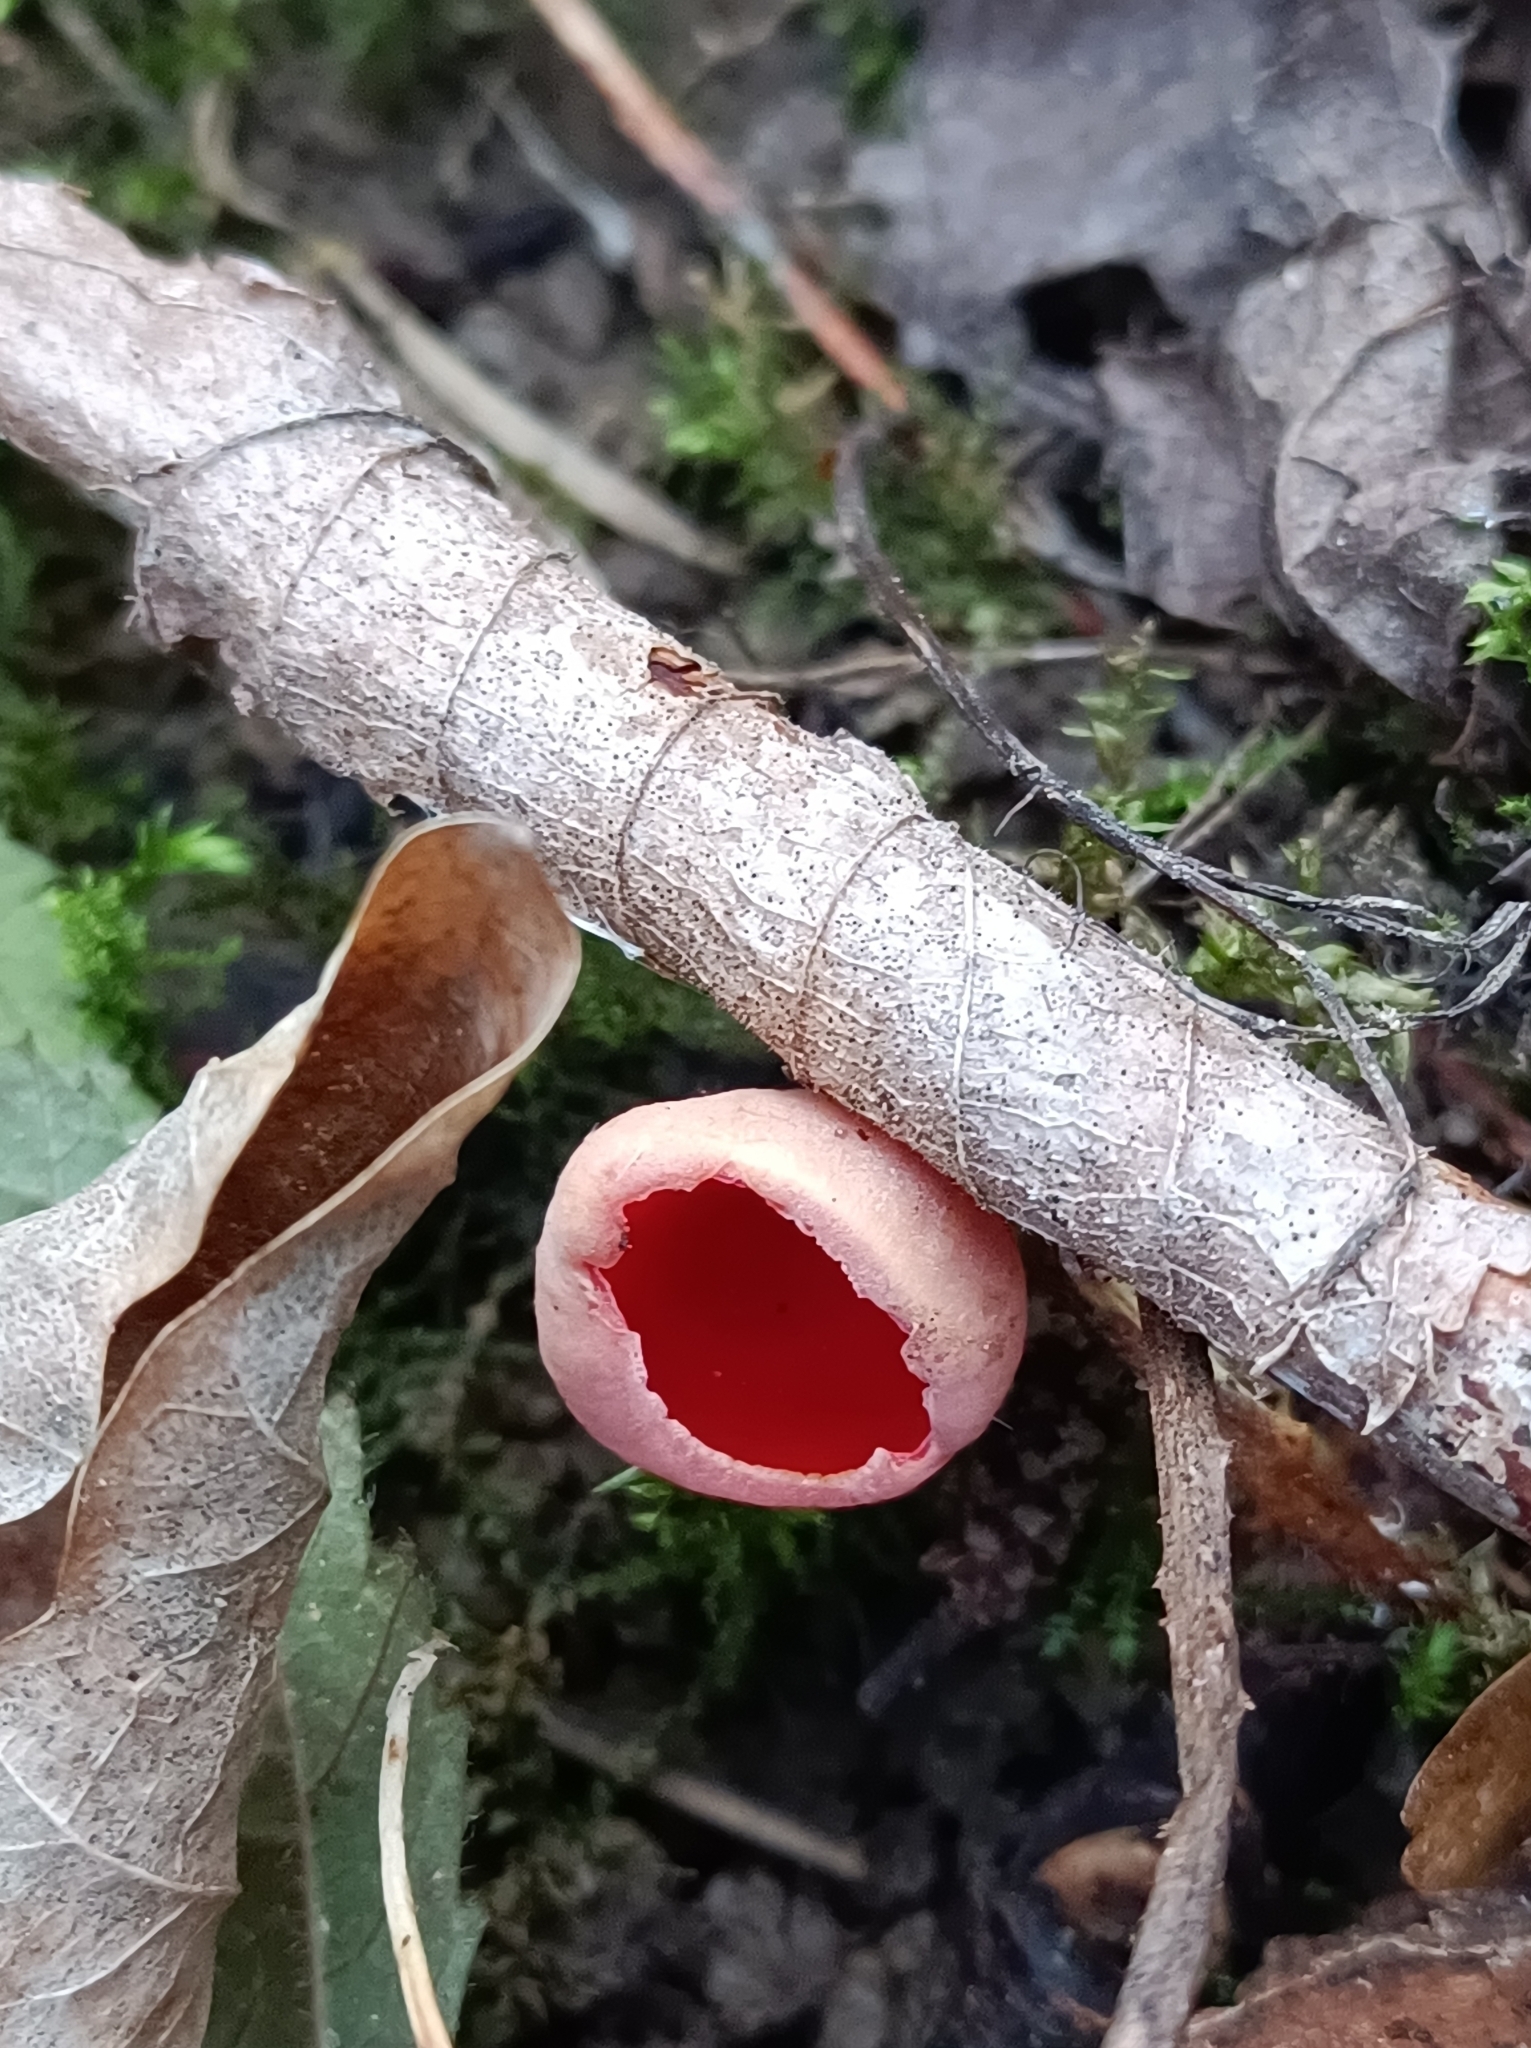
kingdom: Fungi
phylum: Ascomycota
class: Pezizomycetes
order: Pezizales
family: Sarcoscyphaceae
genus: Sarcoscypha
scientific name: Sarcoscypha
